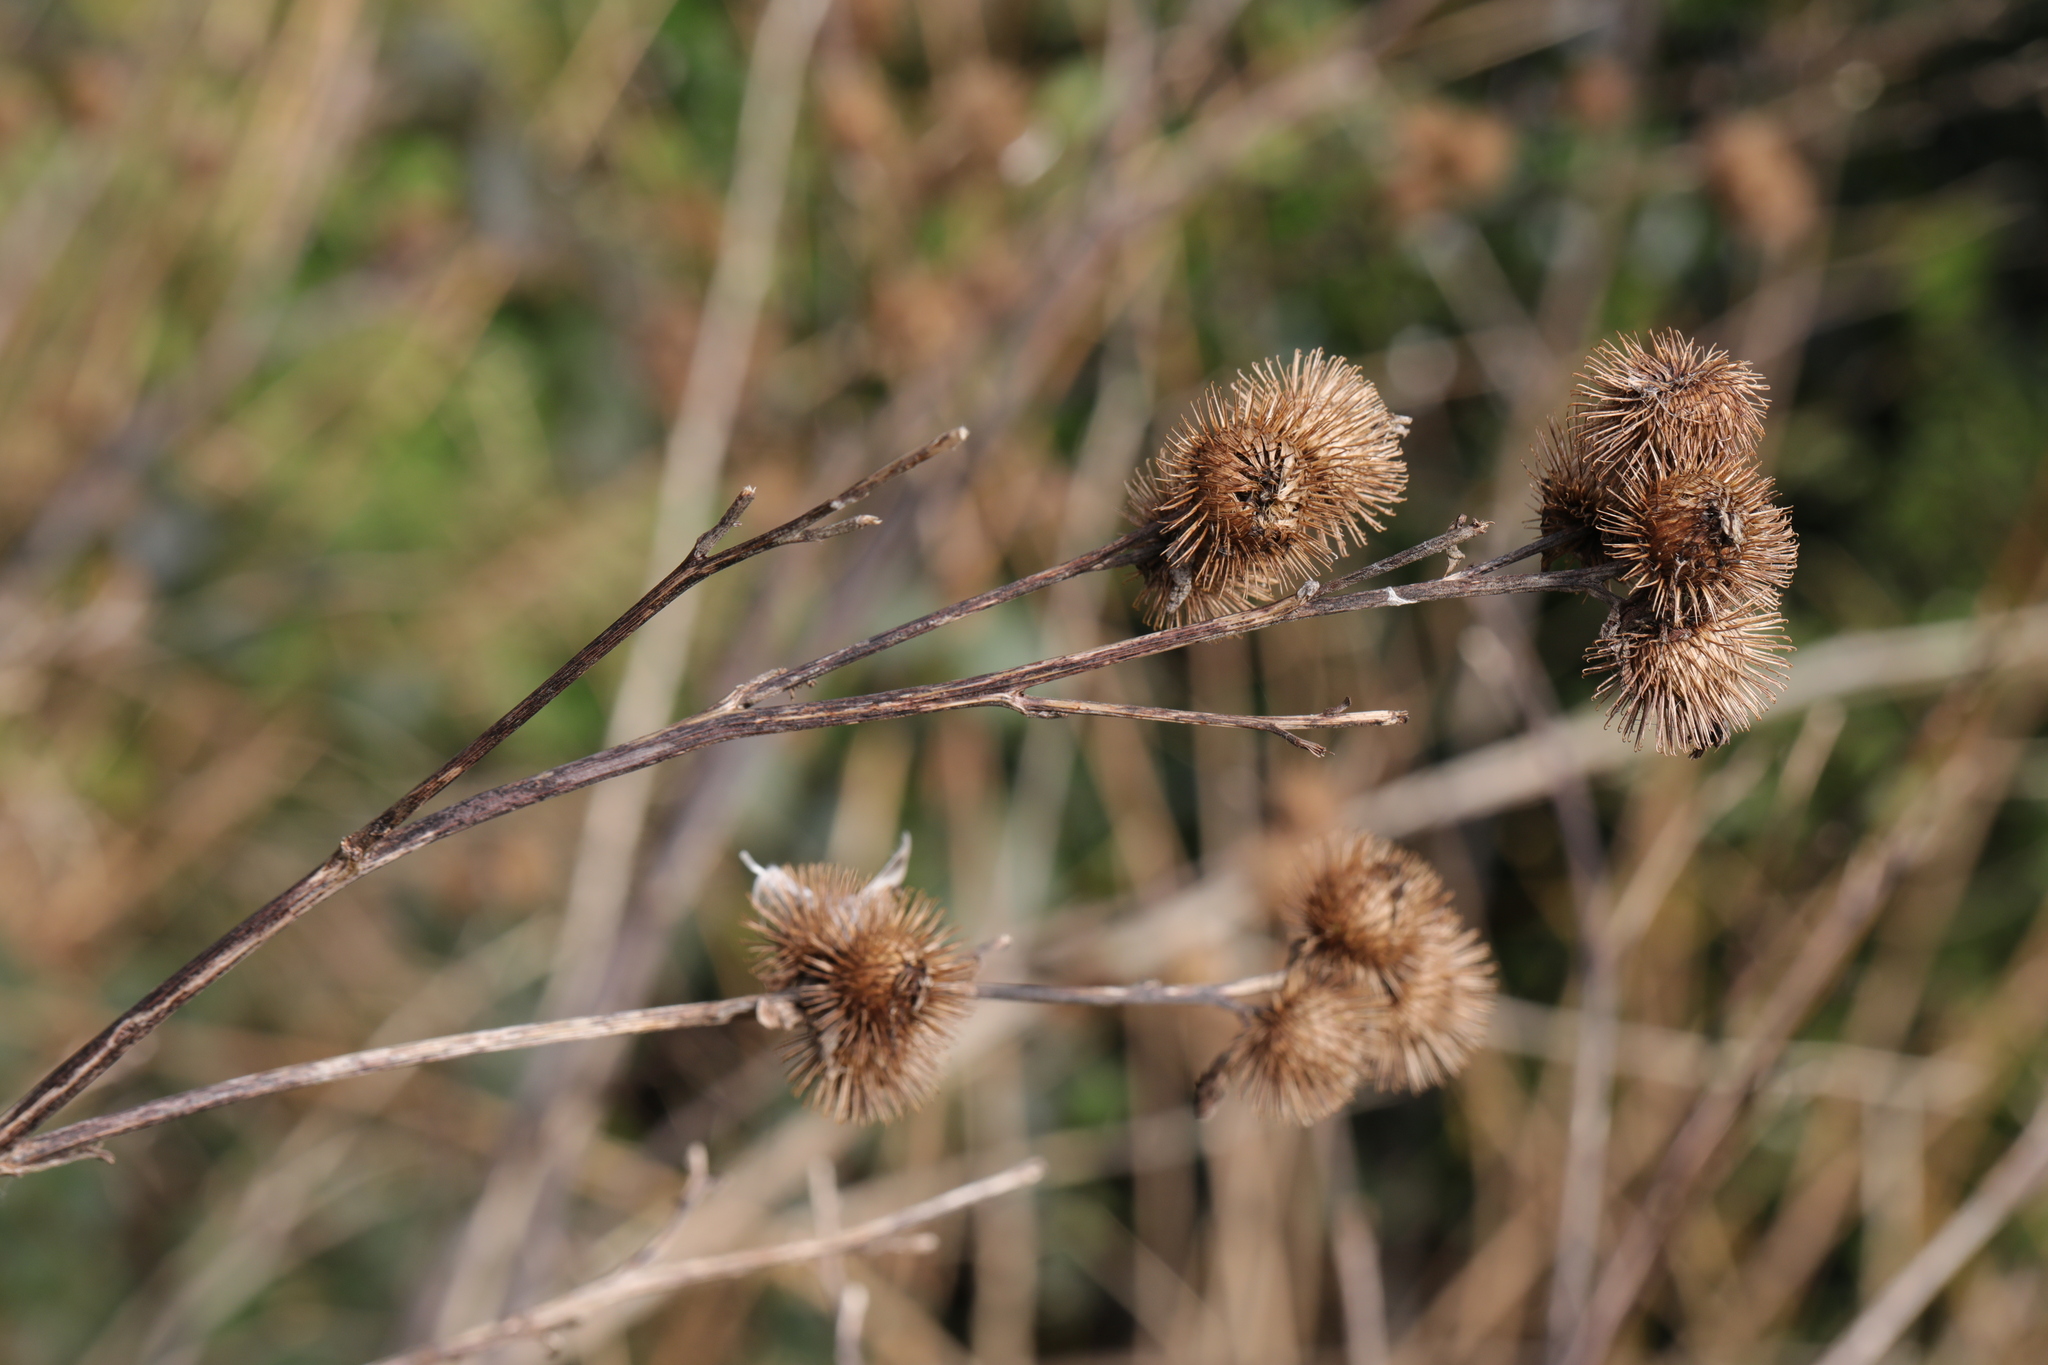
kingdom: Plantae
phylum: Tracheophyta
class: Magnoliopsida
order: Asterales
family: Asteraceae
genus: Arctium
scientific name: Arctium minus
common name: Lesser burdock
